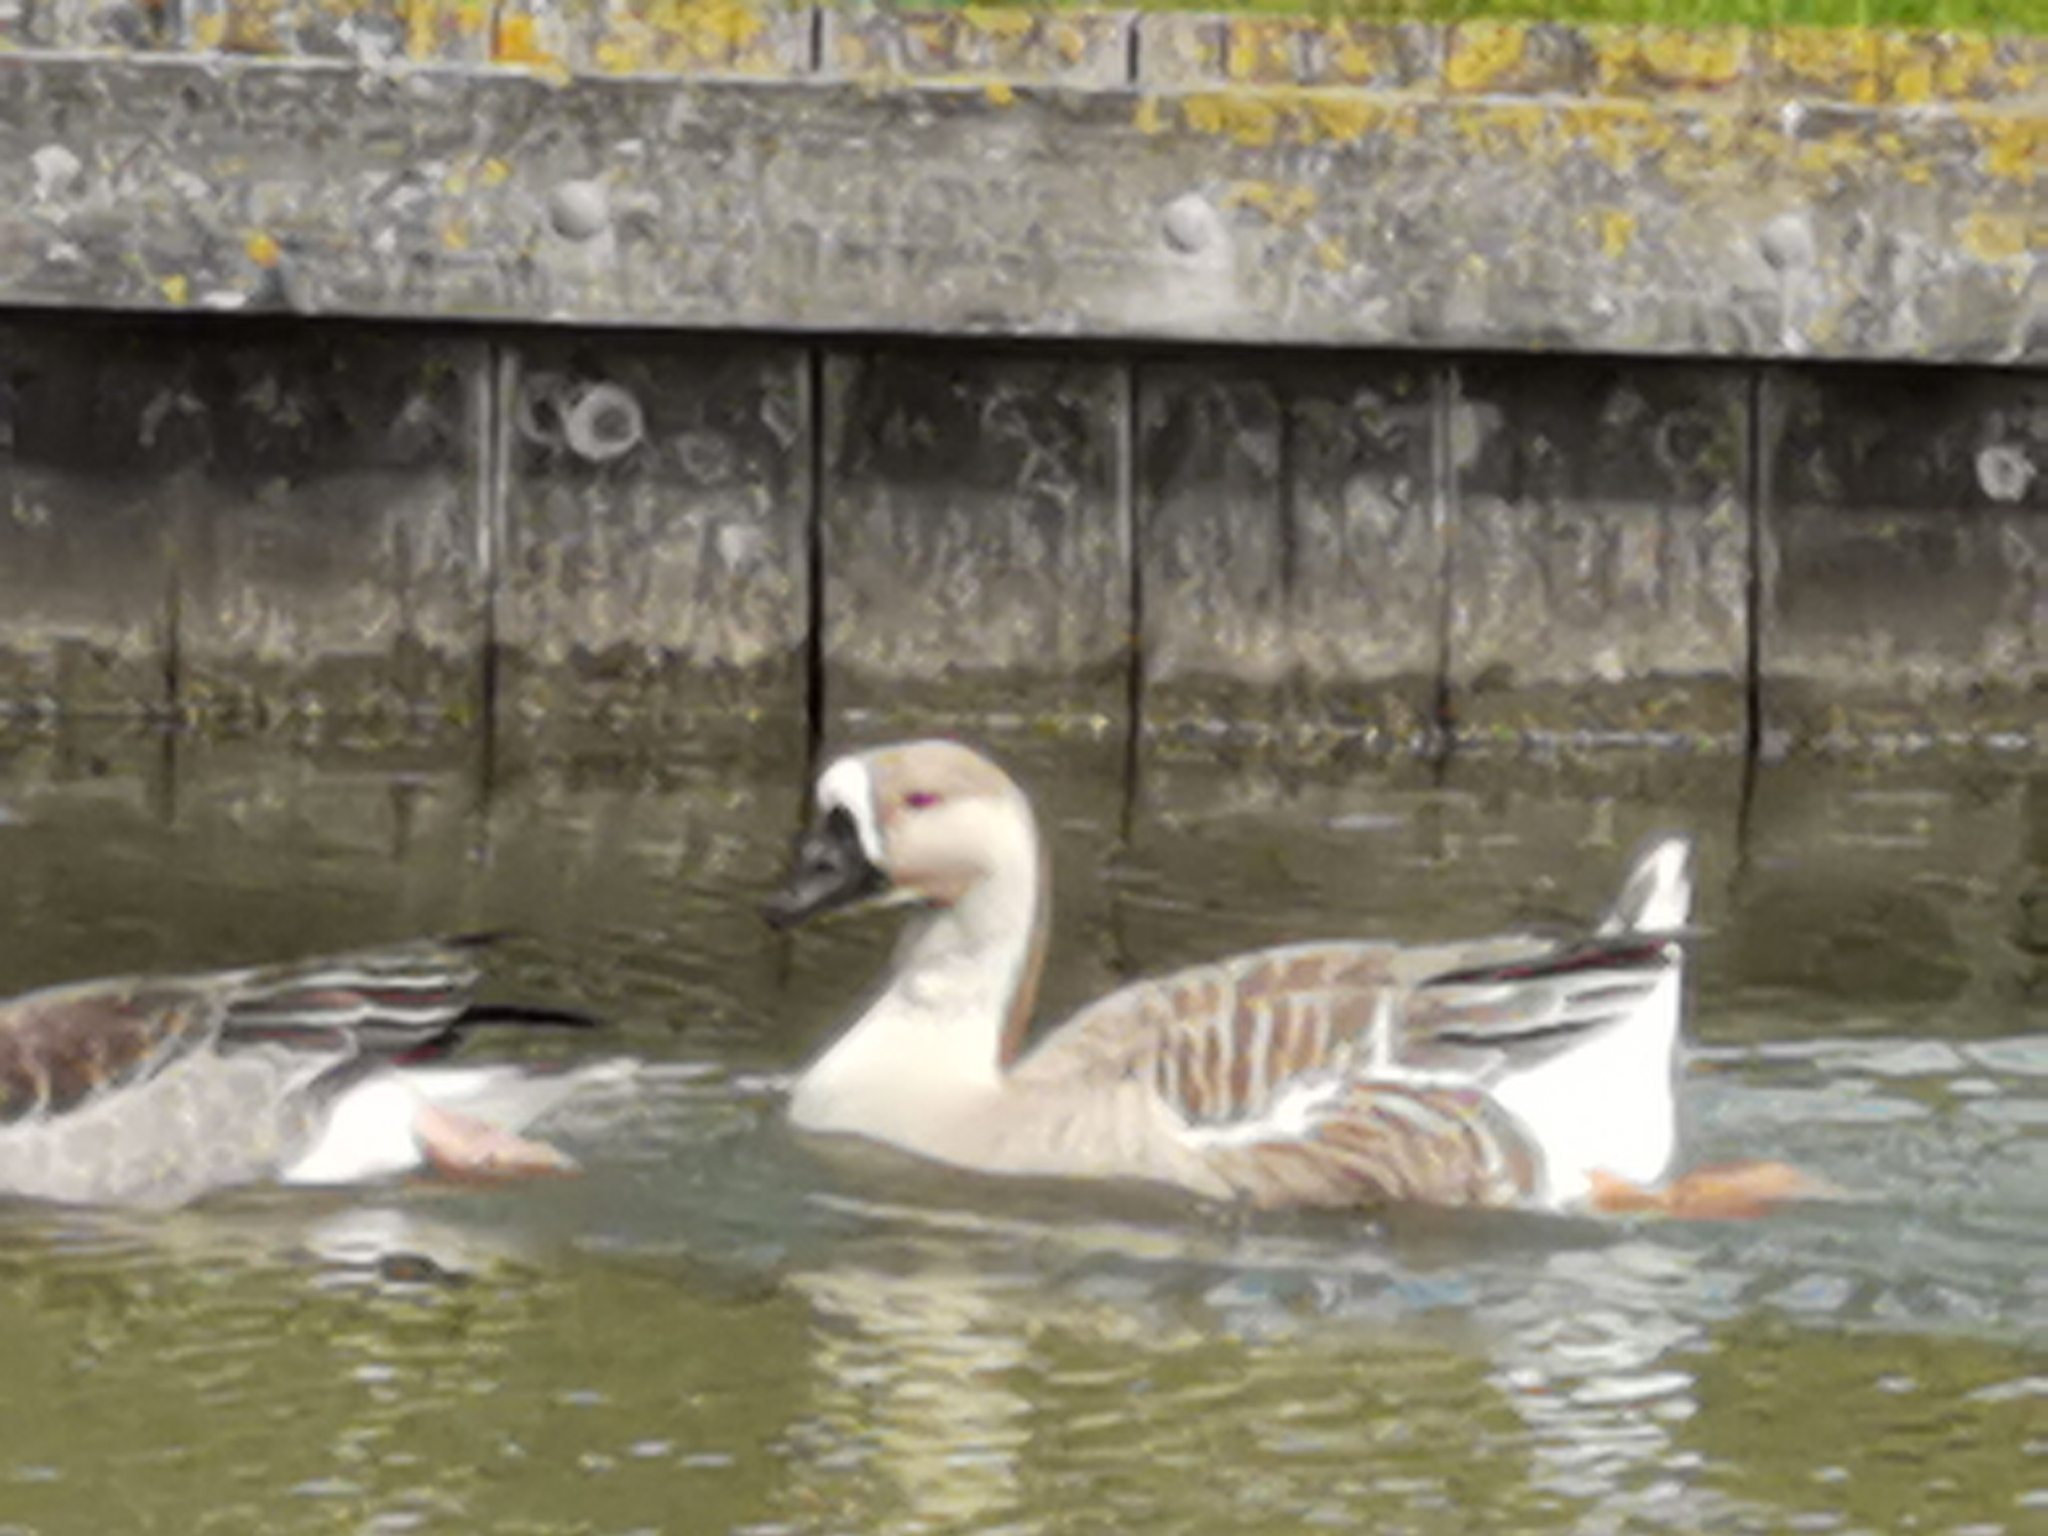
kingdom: Animalia
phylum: Chordata
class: Aves
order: Anseriformes
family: Anatidae
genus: Anser
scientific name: Anser cygnoides
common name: Swan goose
